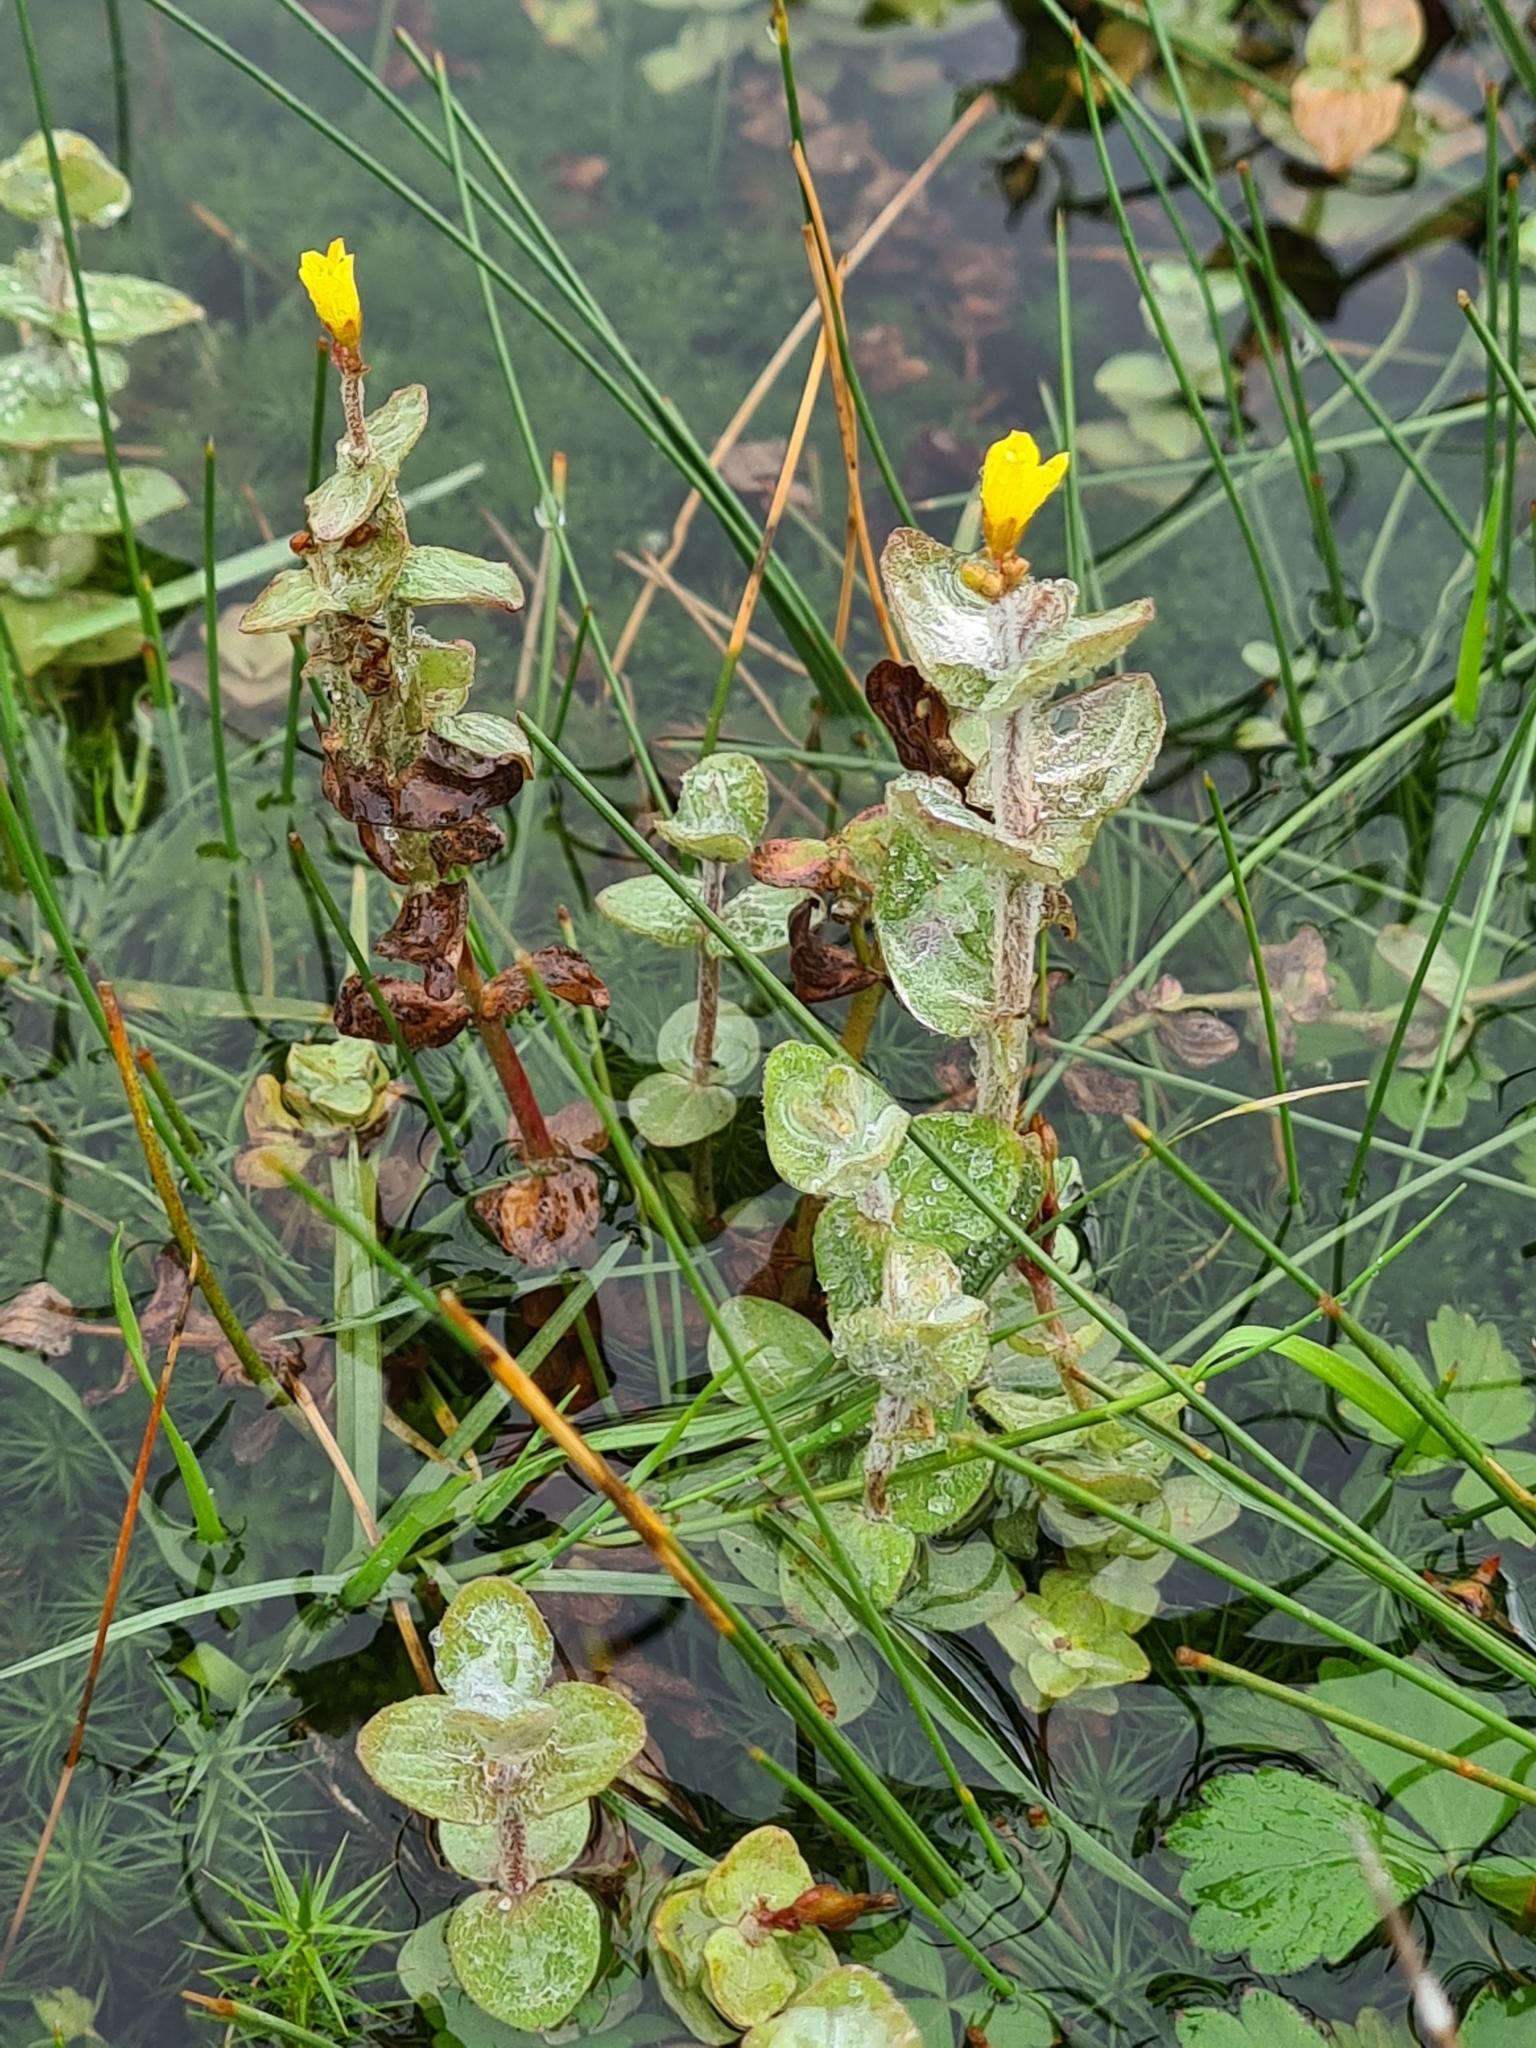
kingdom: Plantae
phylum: Tracheophyta
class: Magnoliopsida
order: Malpighiales
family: Hypericaceae
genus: Hypericum
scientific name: Hypericum elodes
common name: Marsh st. john's-wort
